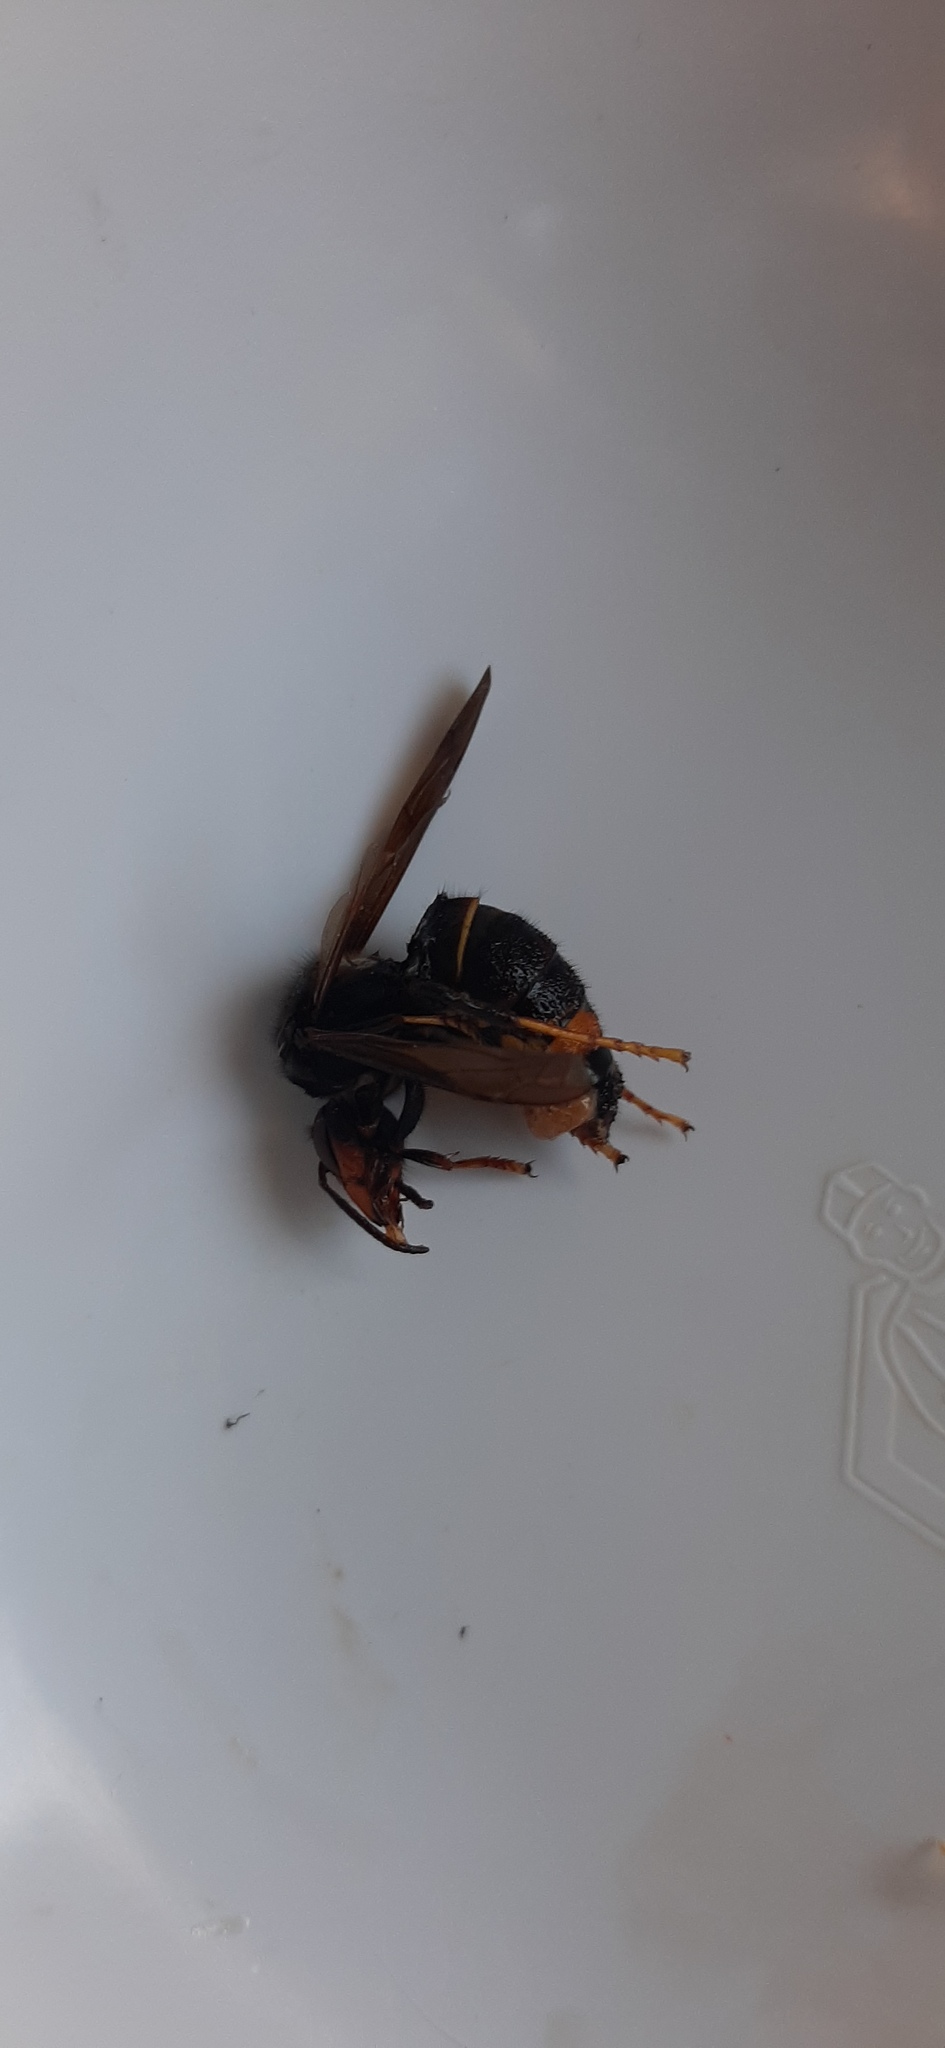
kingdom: Animalia
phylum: Arthropoda
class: Insecta
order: Hymenoptera
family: Vespidae
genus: Vespa
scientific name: Vespa velutina
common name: Asian hornet
